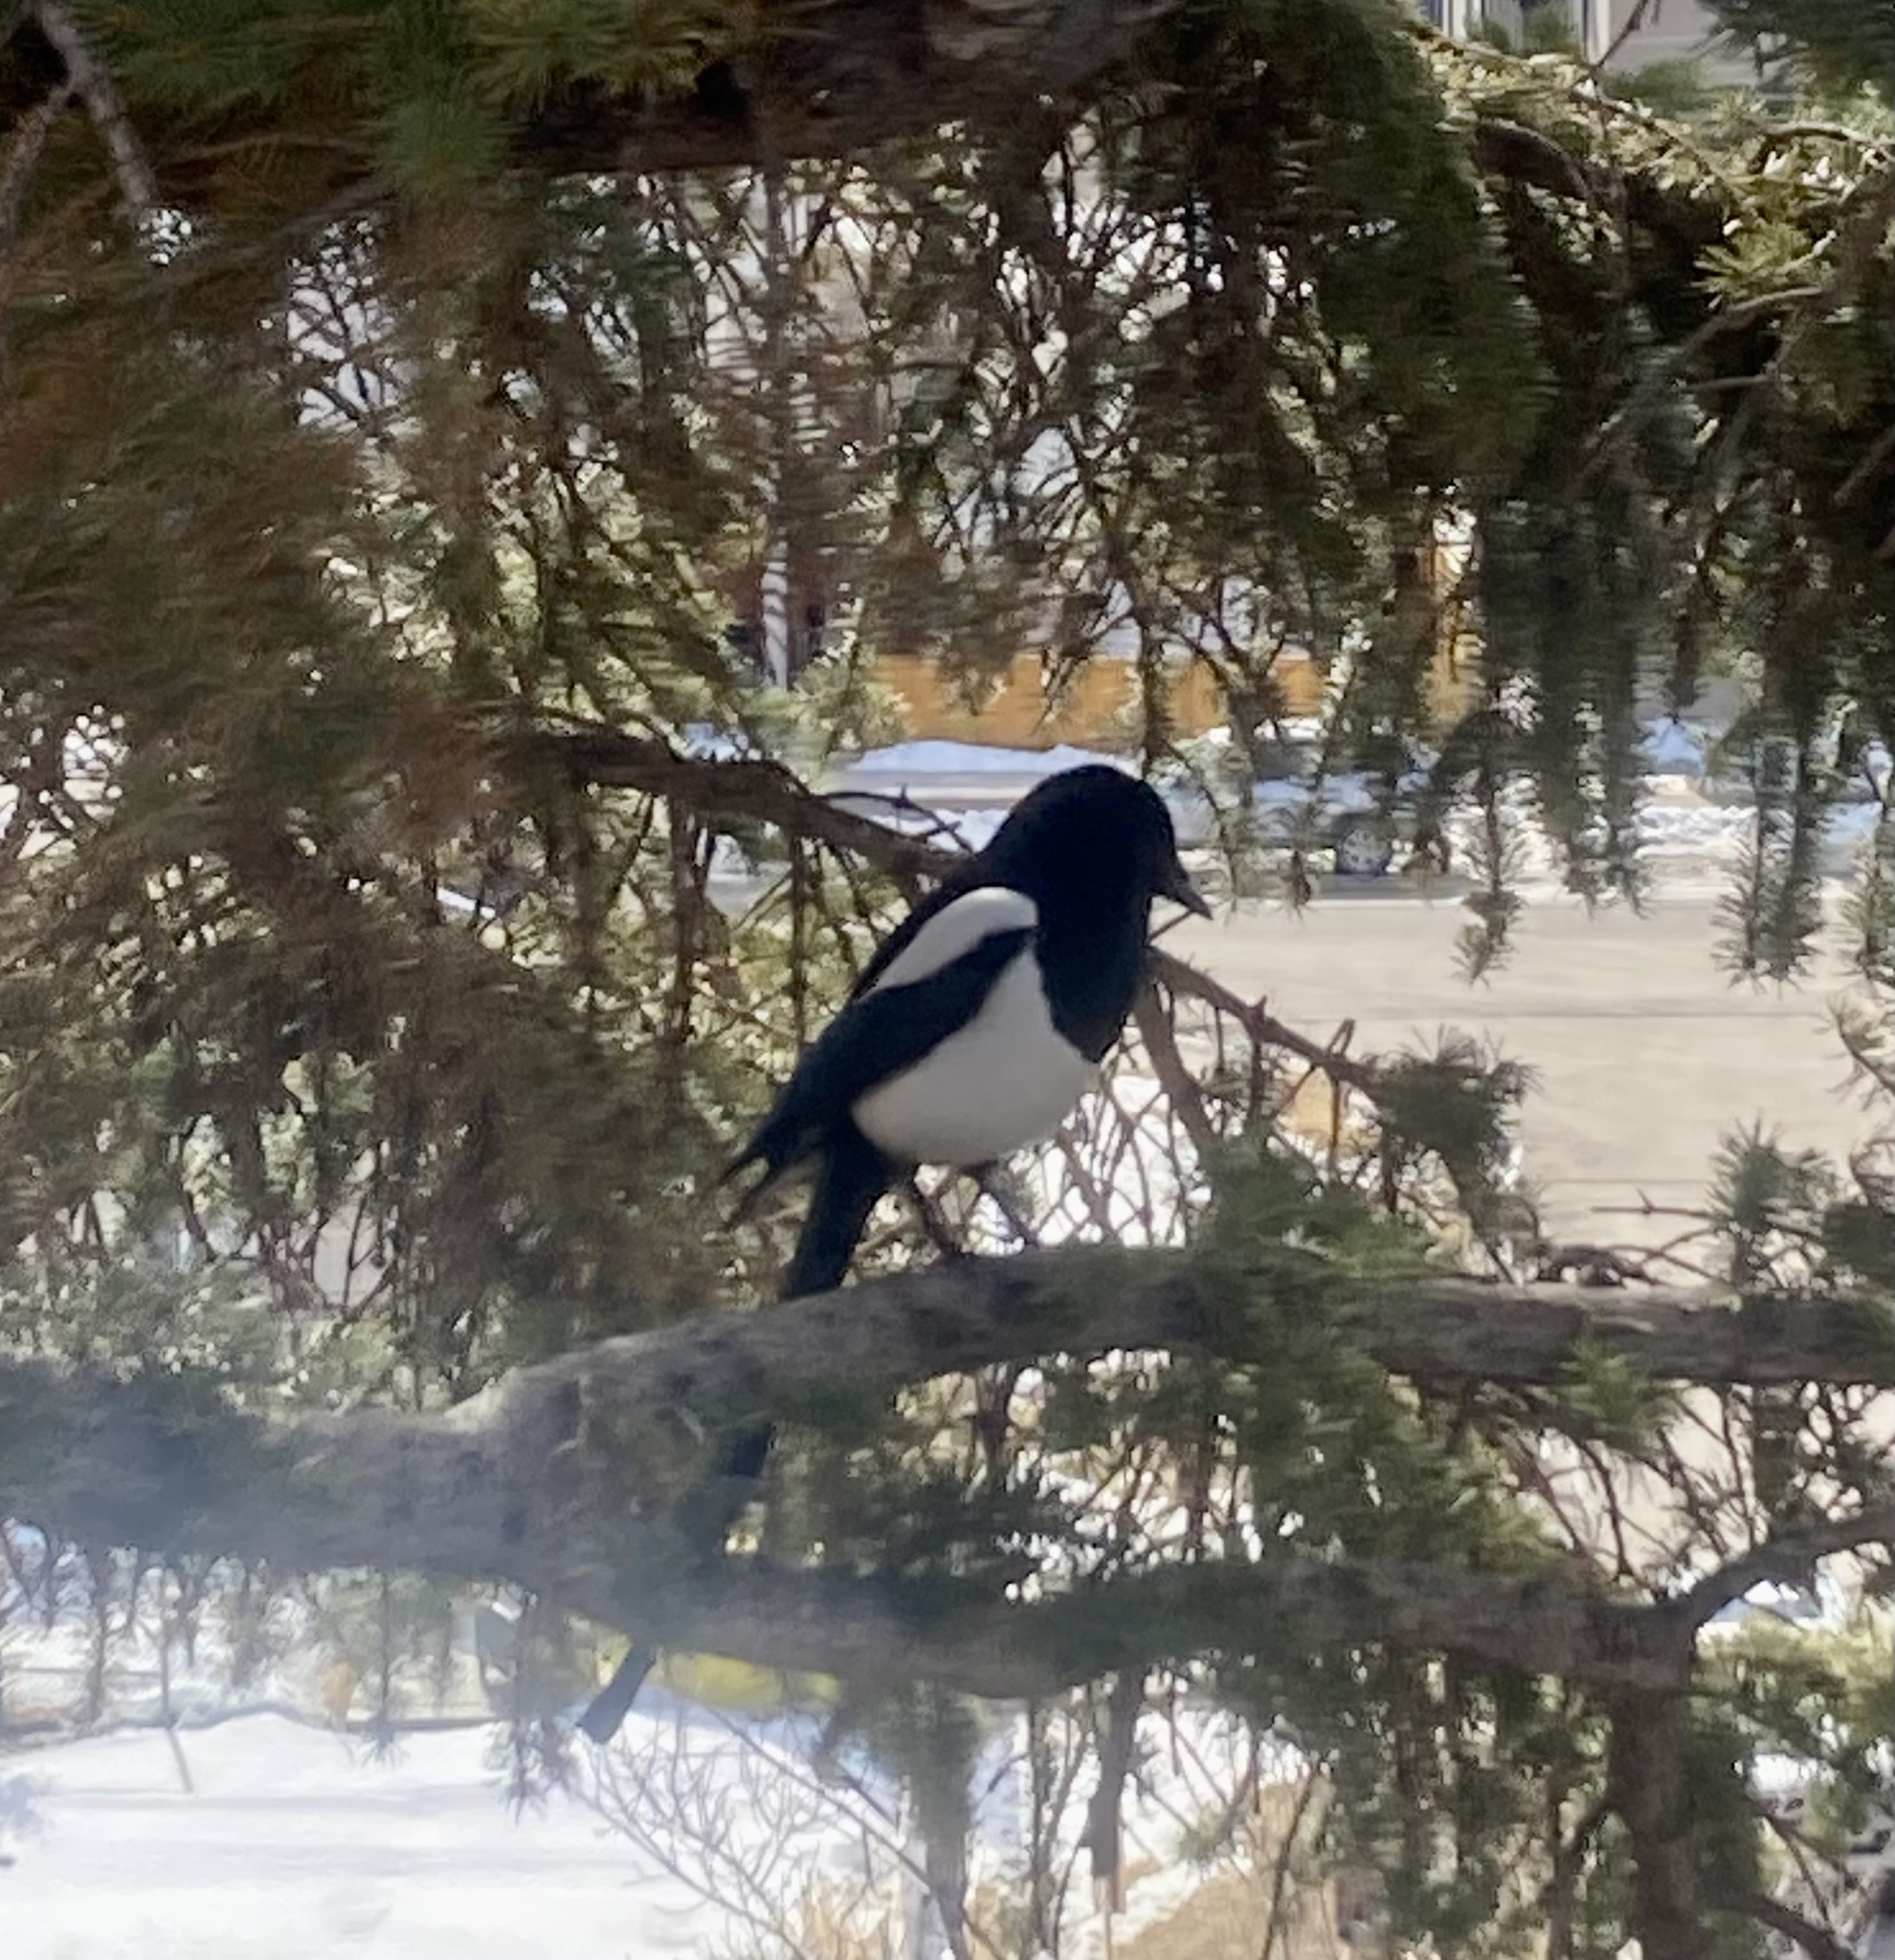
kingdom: Animalia
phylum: Chordata
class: Aves
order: Passeriformes
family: Corvidae
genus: Pica
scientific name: Pica hudsonia
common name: Black-billed magpie
